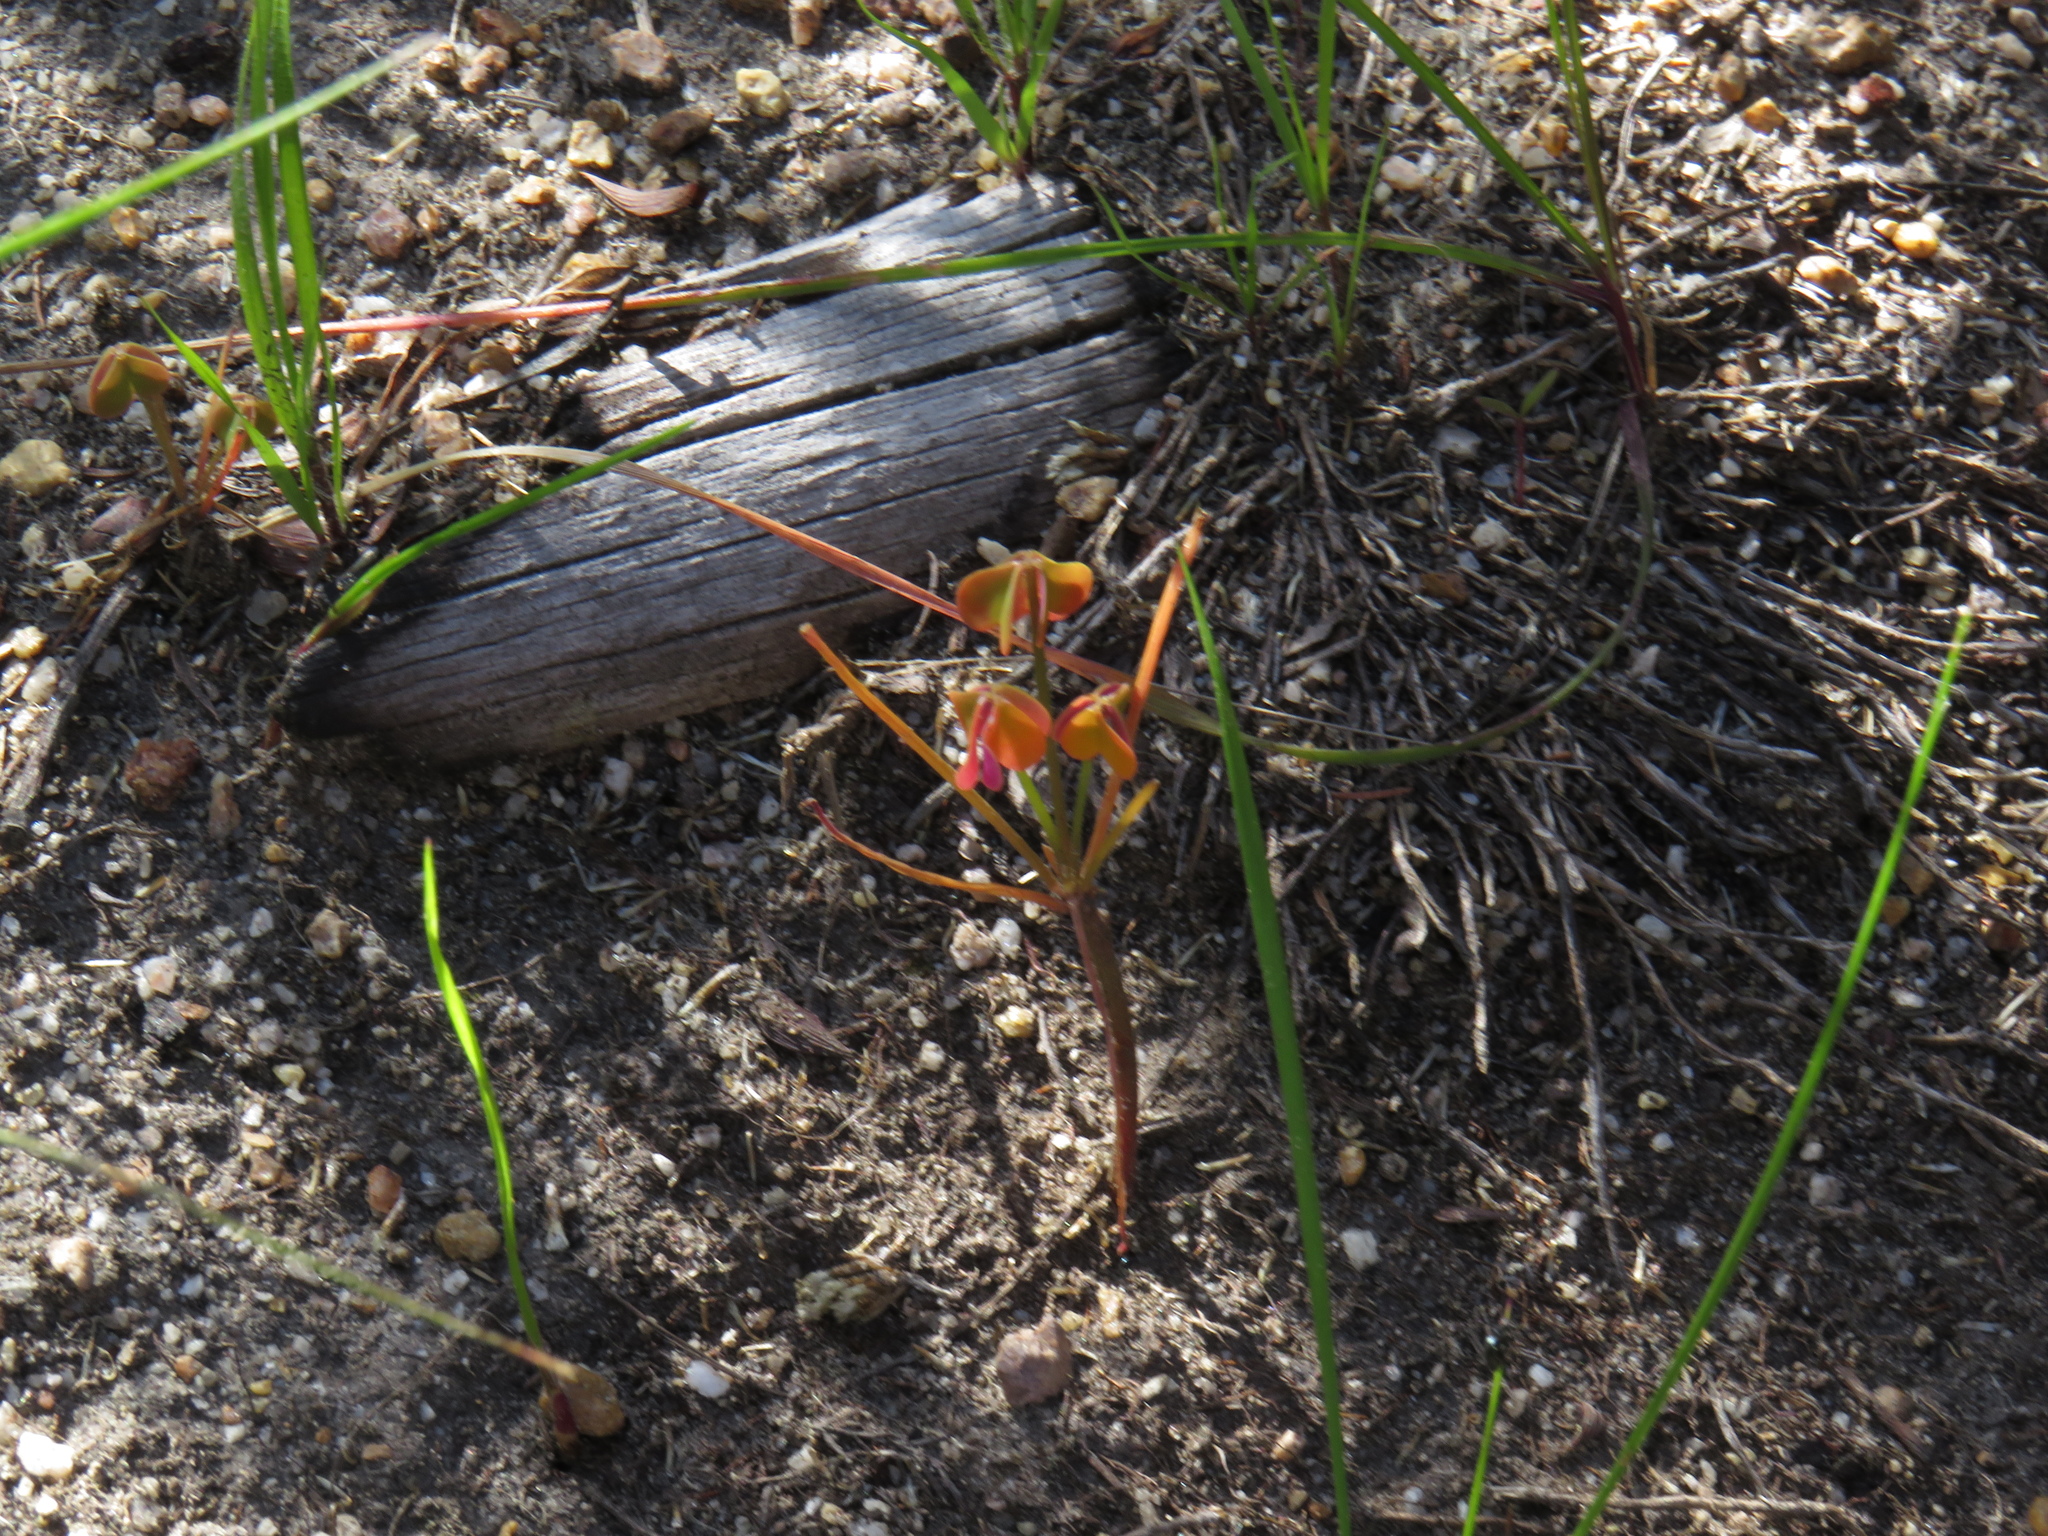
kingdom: Plantae
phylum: Tracheophyta
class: Magnoliopsida
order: Oxalidales
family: Oxalidaceae
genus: Oxalis
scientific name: Oxalis pes-caprae
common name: Bermuda-buttercup
